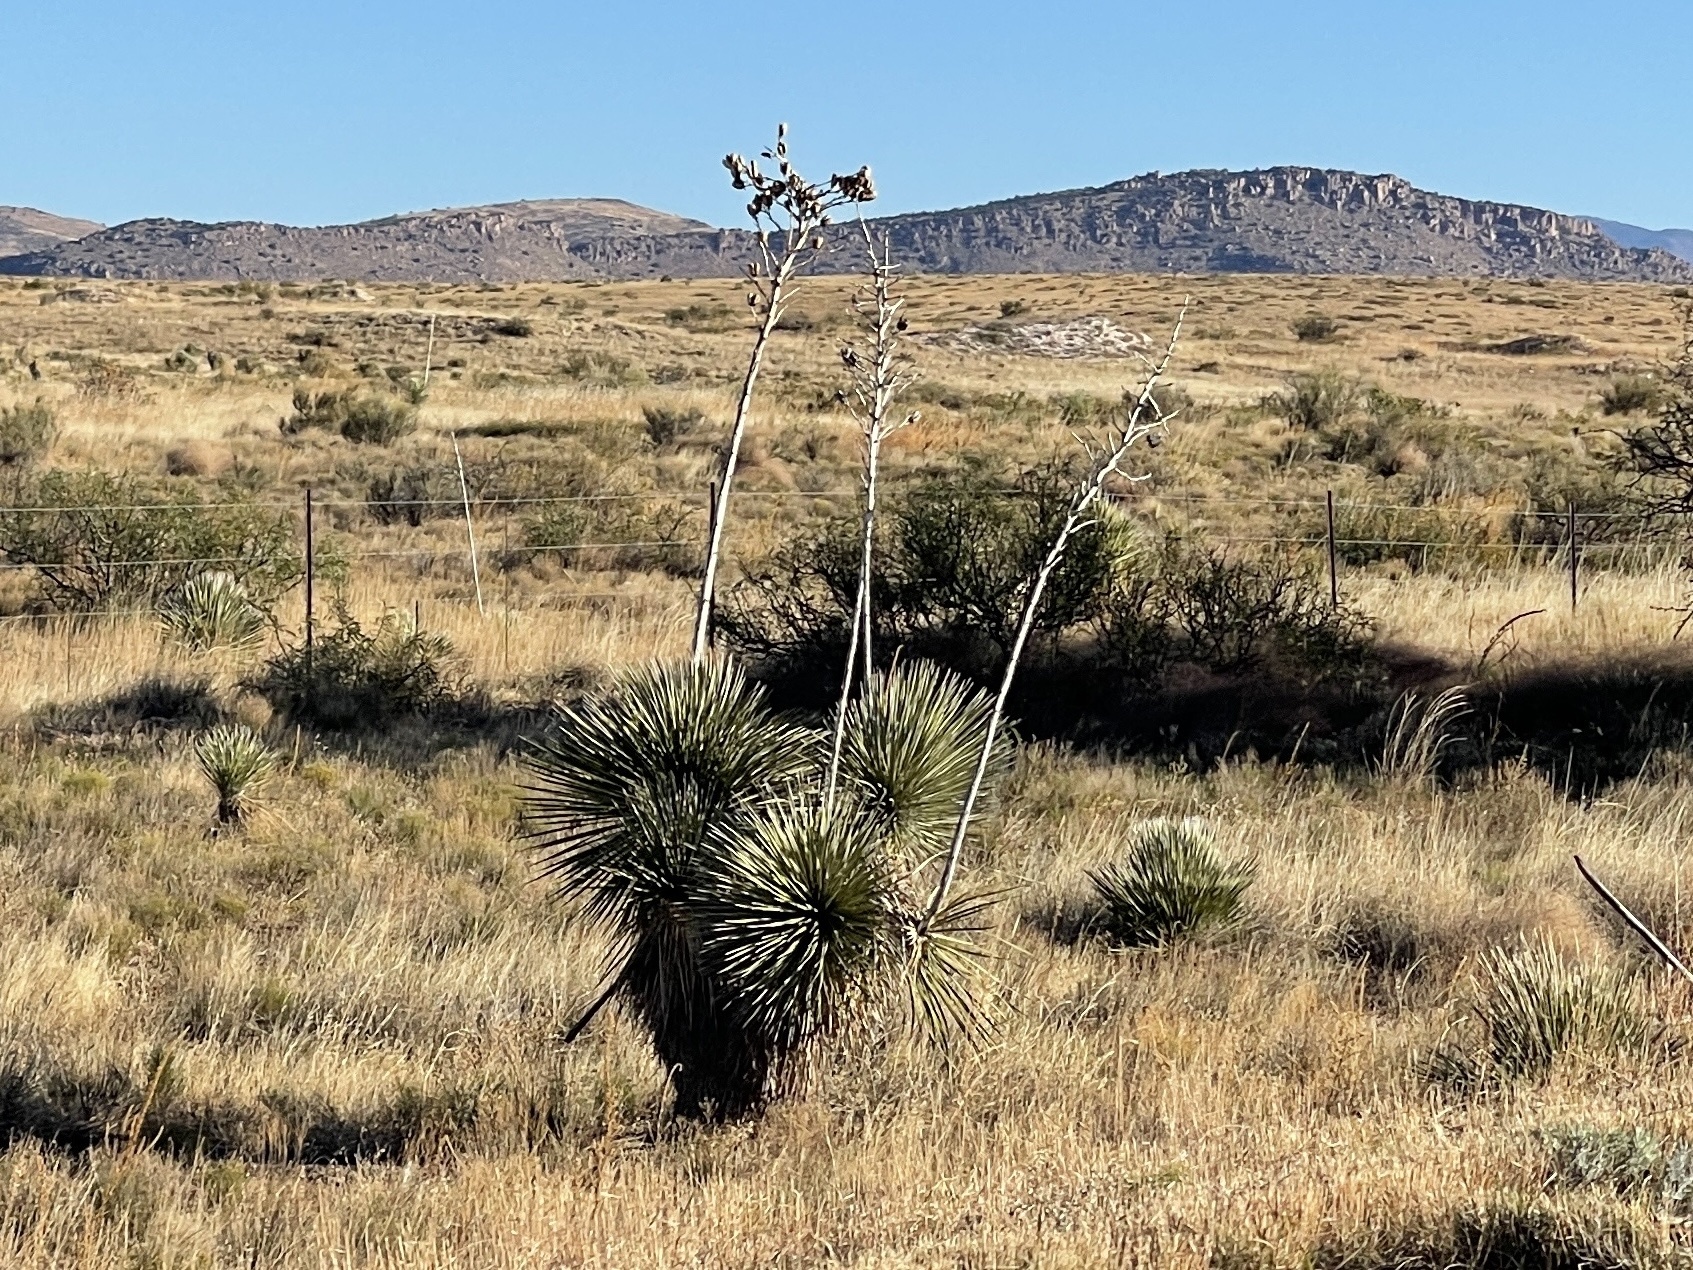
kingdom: Plantae
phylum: Tracheophyta
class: Liliopsida
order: Asparagales
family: Asparagaceae
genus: Yucca
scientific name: Yucca elata
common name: Palmella
